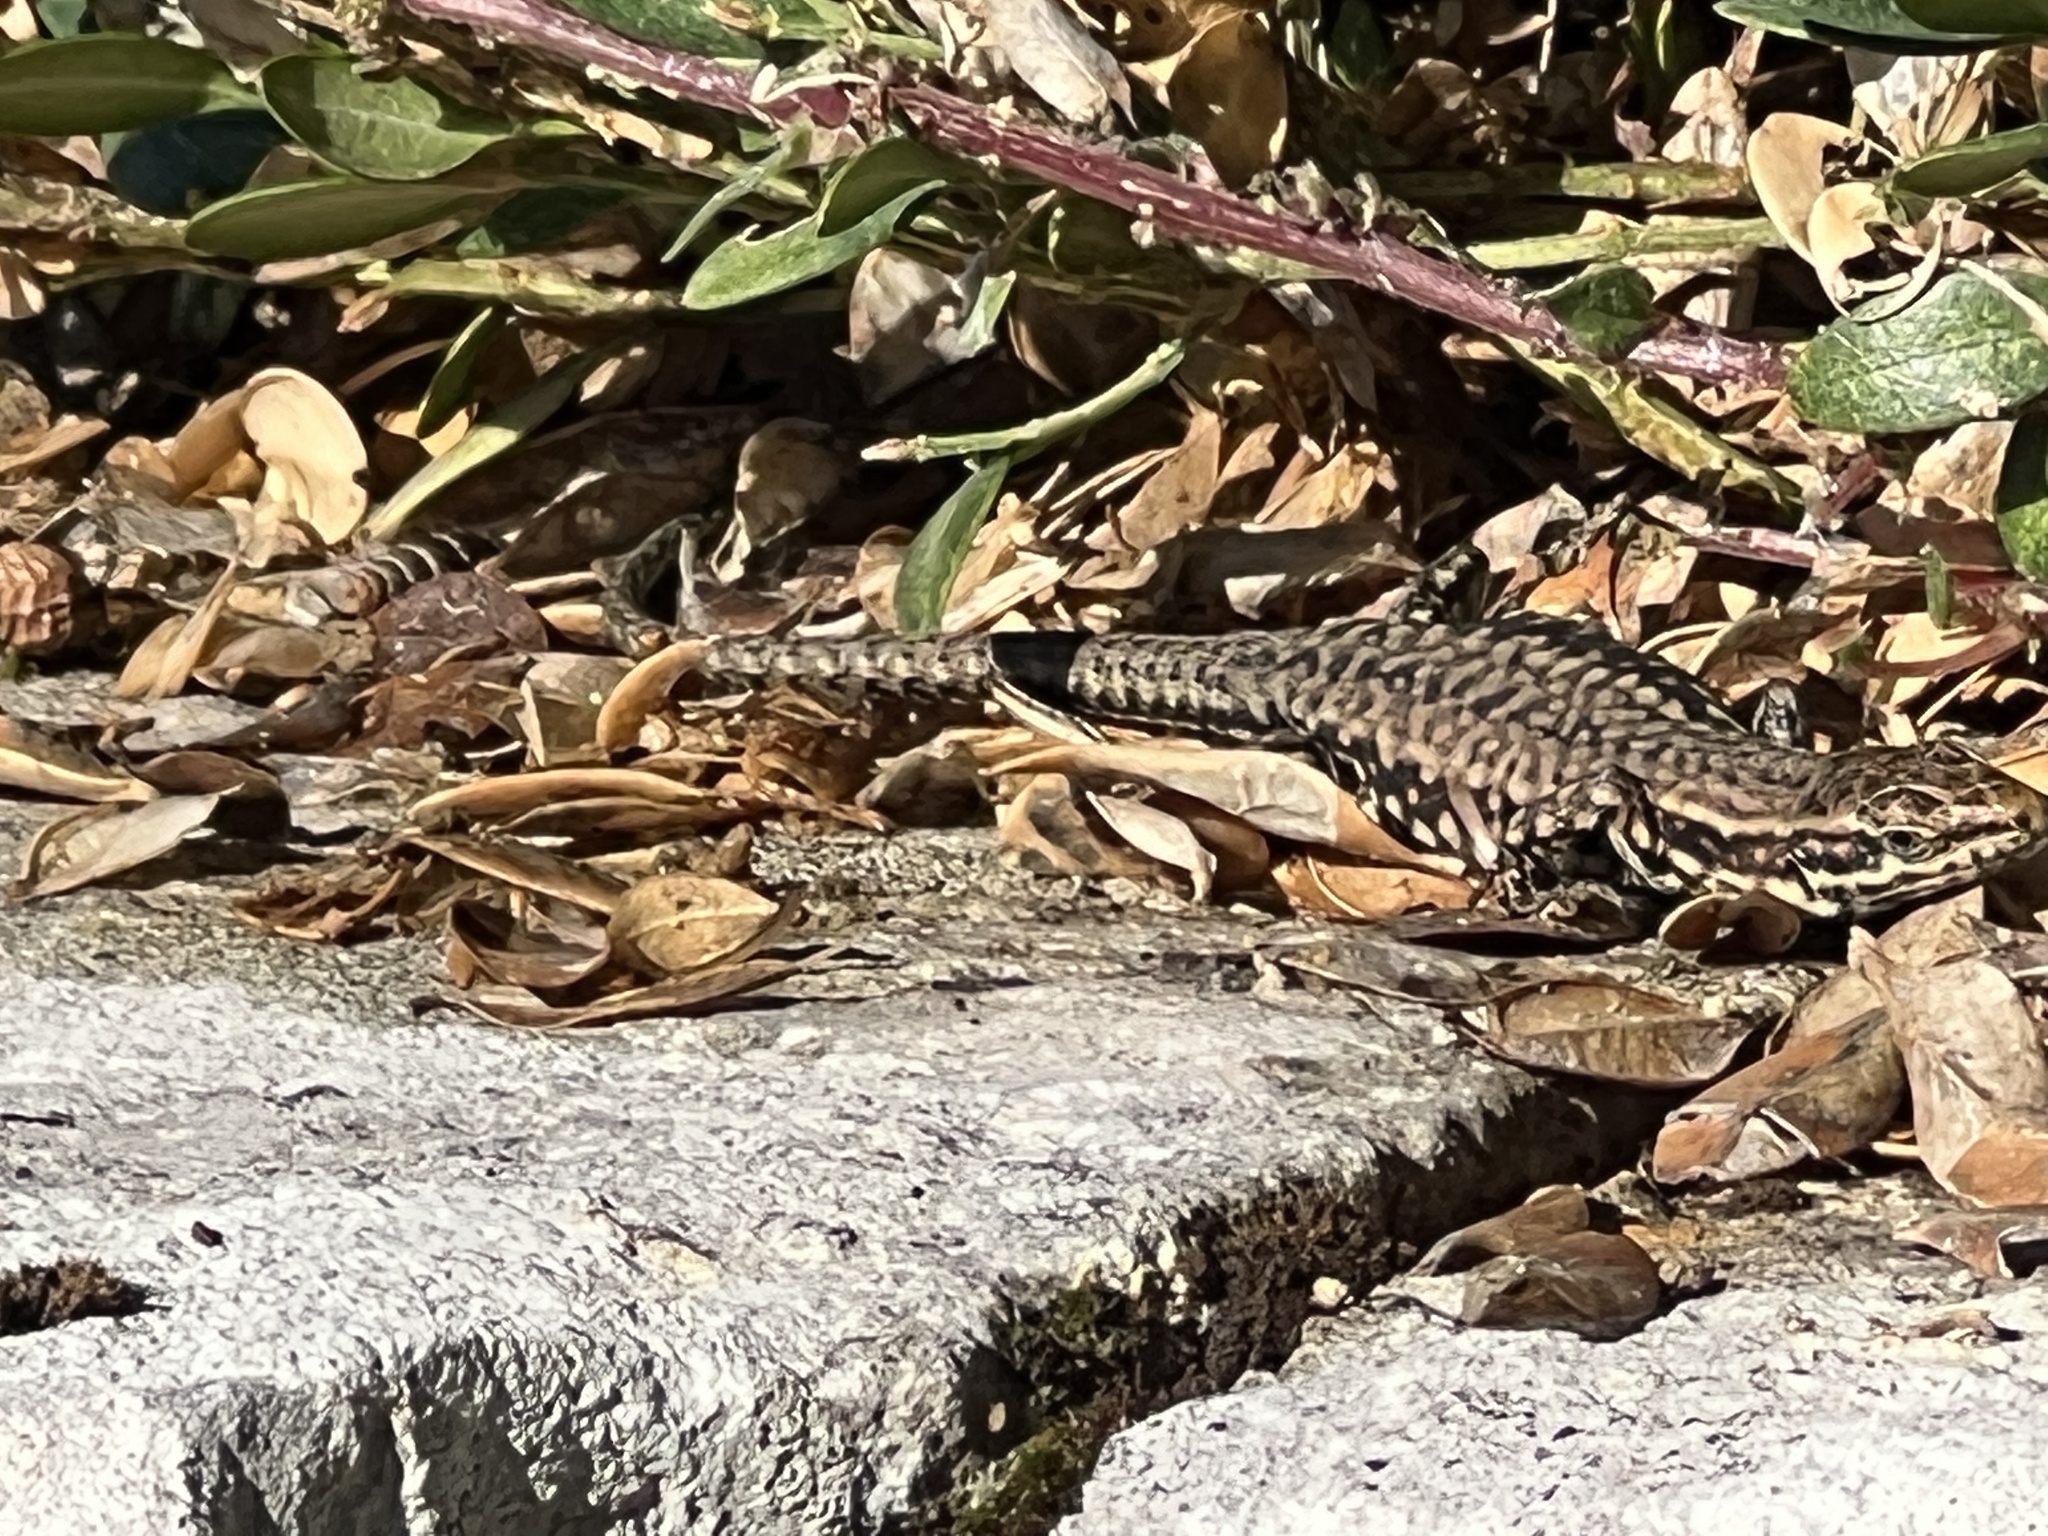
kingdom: Animalia
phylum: Chordata
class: Squamata
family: Lacertidae
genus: Podarcis
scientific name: Podarcis muralis
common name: Common wall lizard
